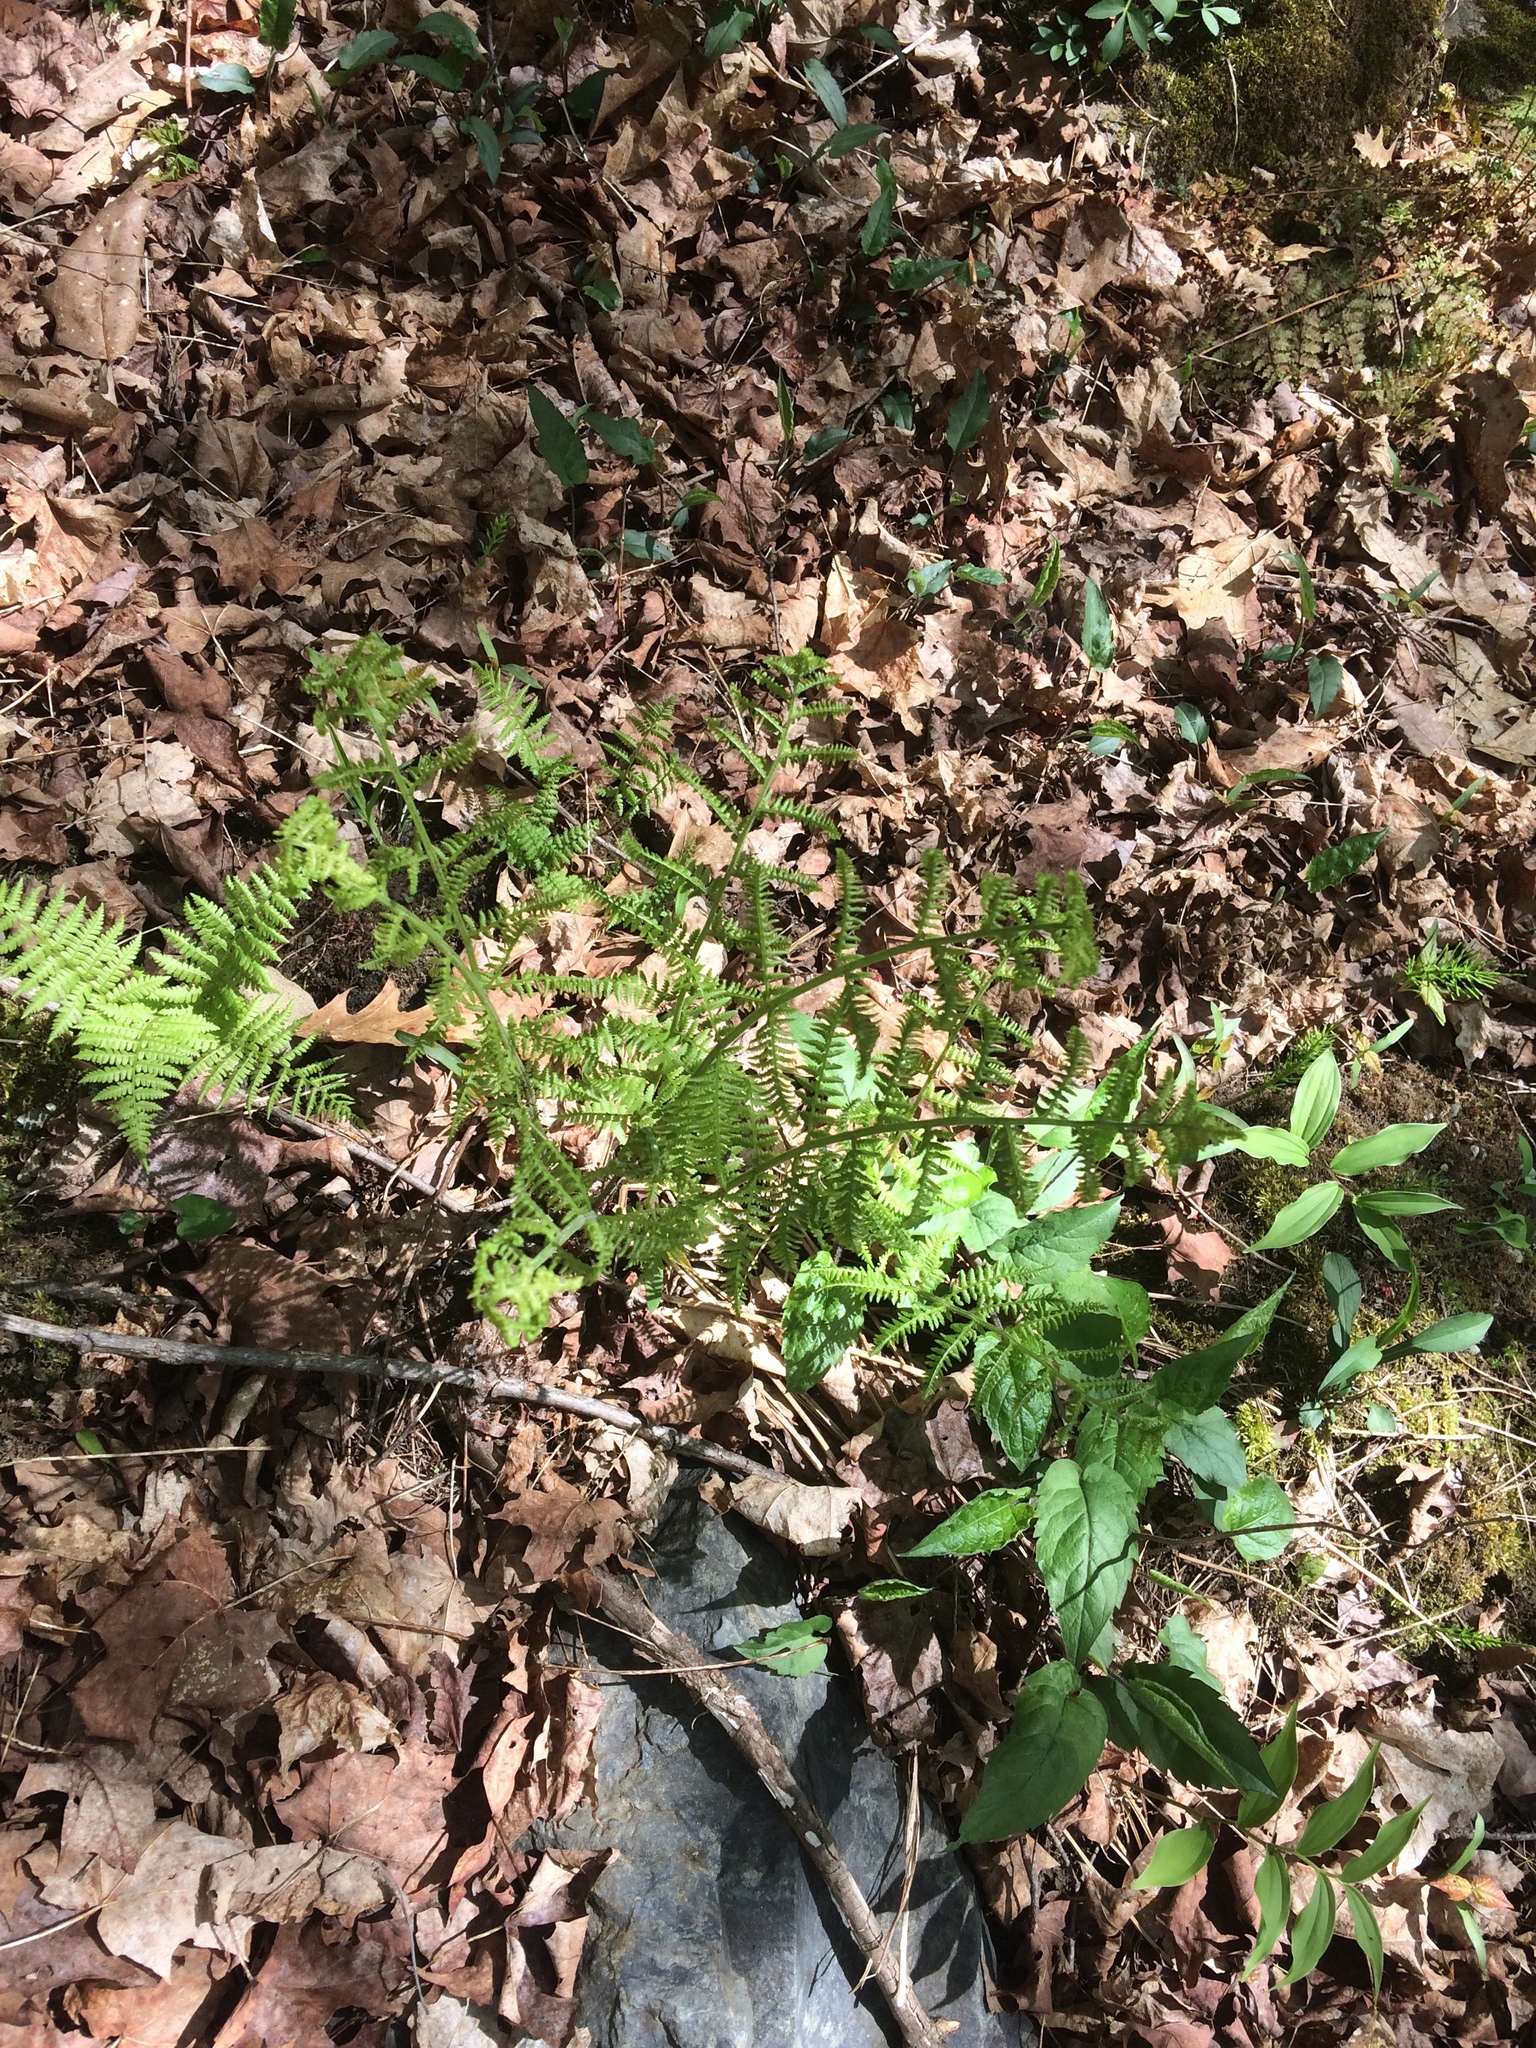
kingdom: Plantae
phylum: Tracheophyta
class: Polypodiopsida
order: Polypodiales
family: Athyriaceae
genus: Athyrium
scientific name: Athyrium angustum
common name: Northern lady fern
